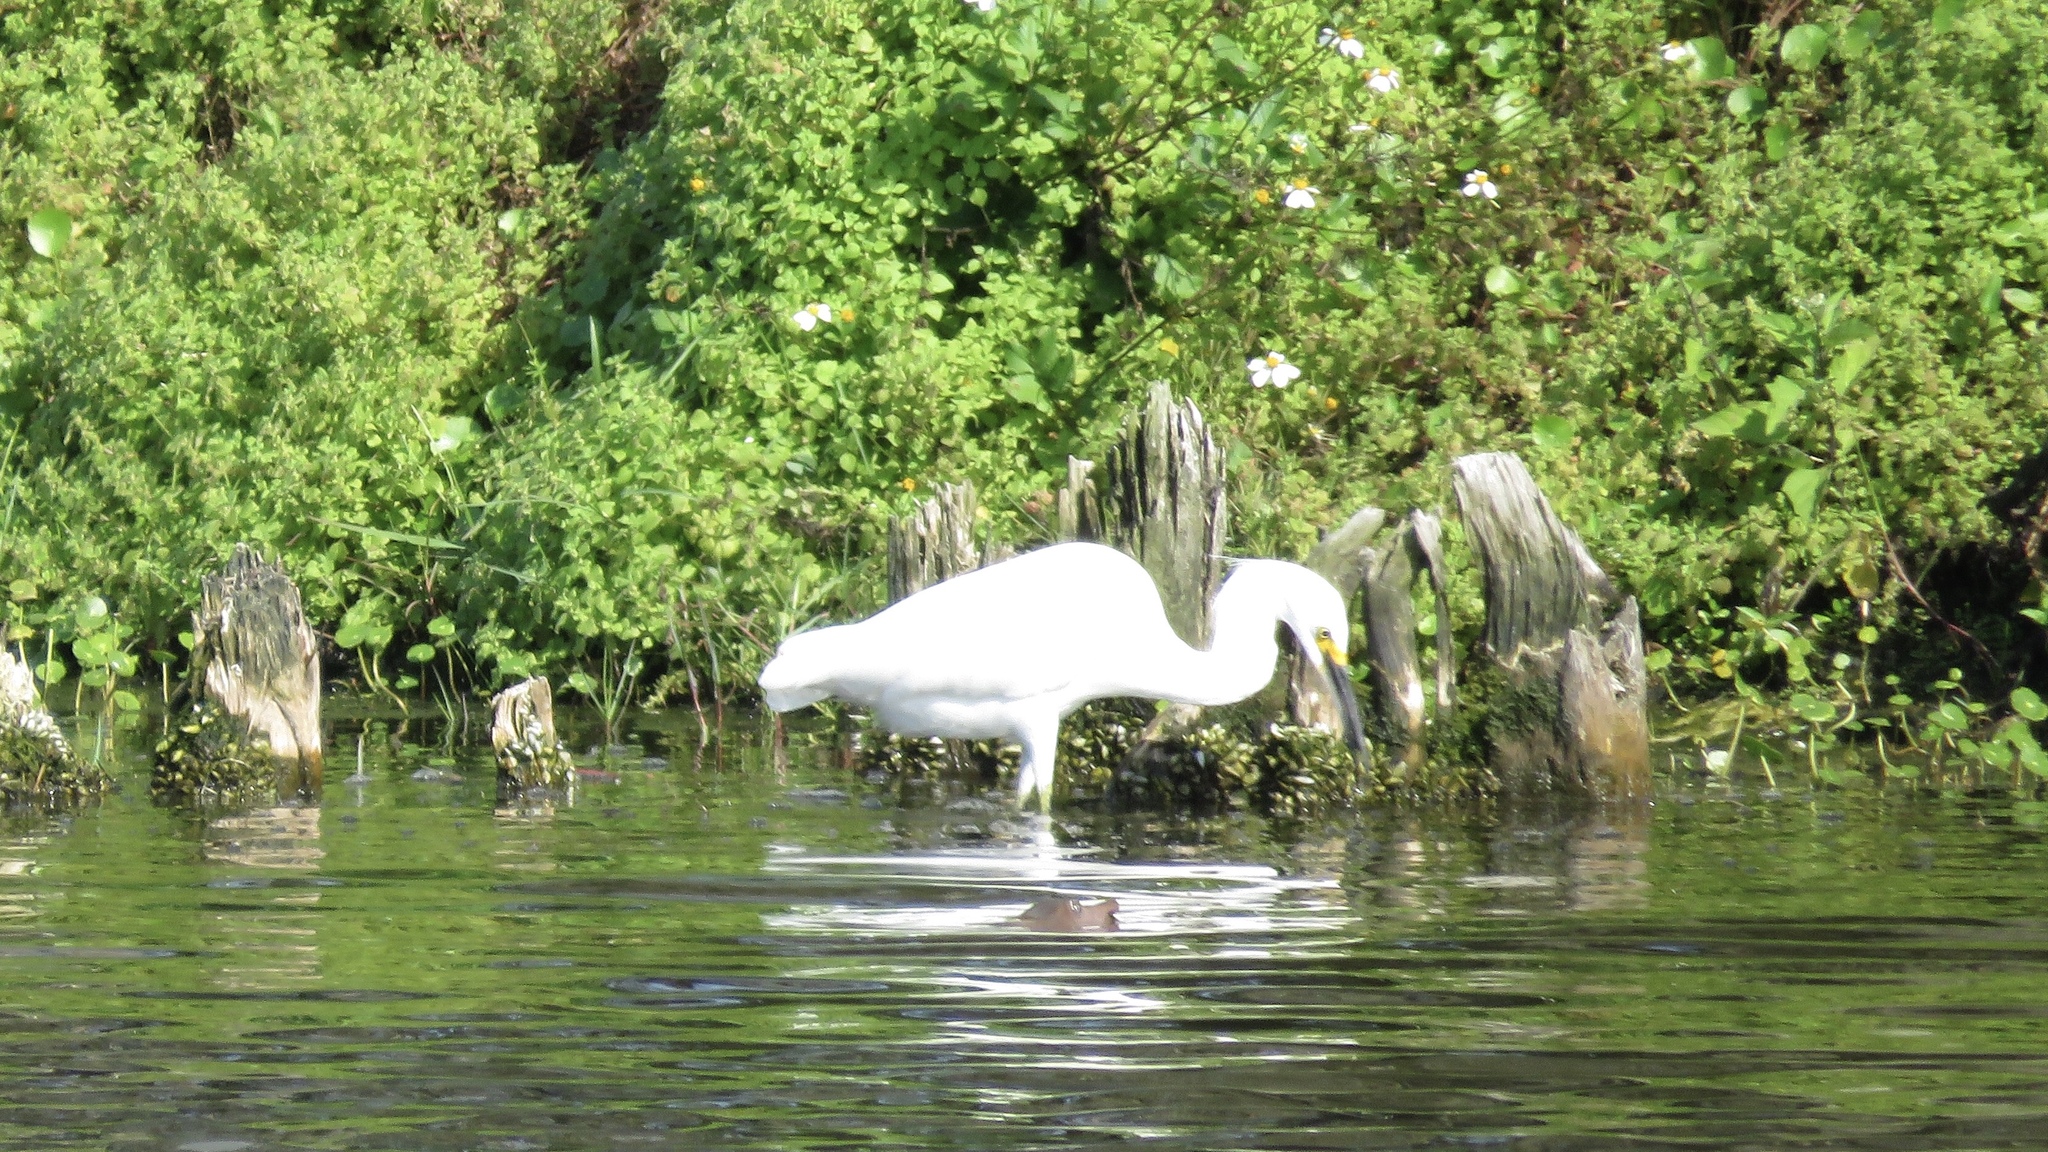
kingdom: Animalia
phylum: Chordata
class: Aves
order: Pelecaniformes
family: Ardeidae
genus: Egretta
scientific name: Egretta thula
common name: Snowy egret
